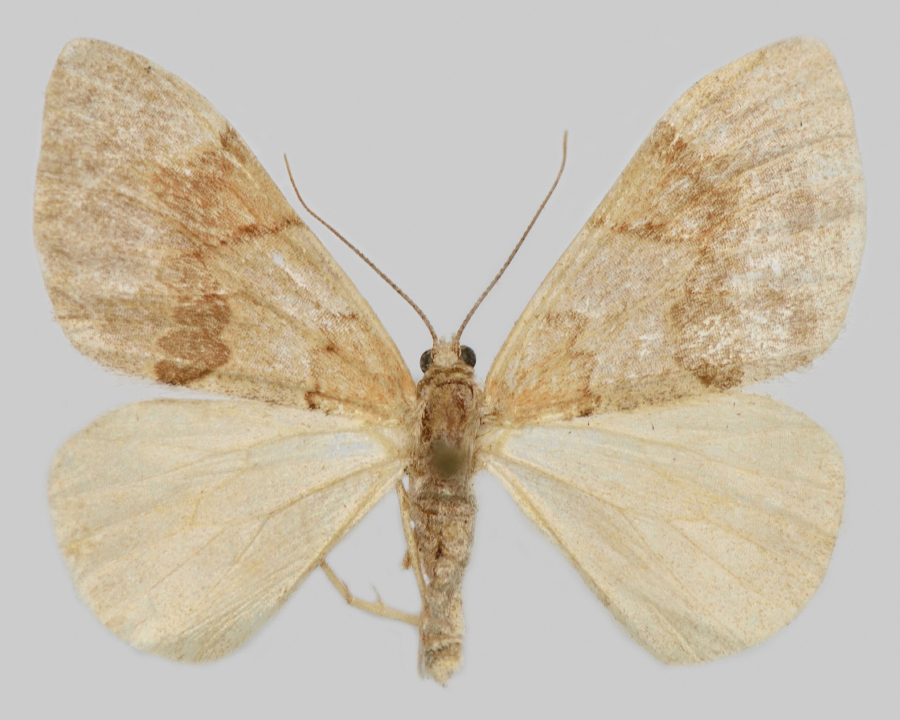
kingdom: Animalia
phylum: Arthropoda
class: Insecta
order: Lepidoptera
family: Geometridae
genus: Pennithera
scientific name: Pennithera firmata
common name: Pine carpet
